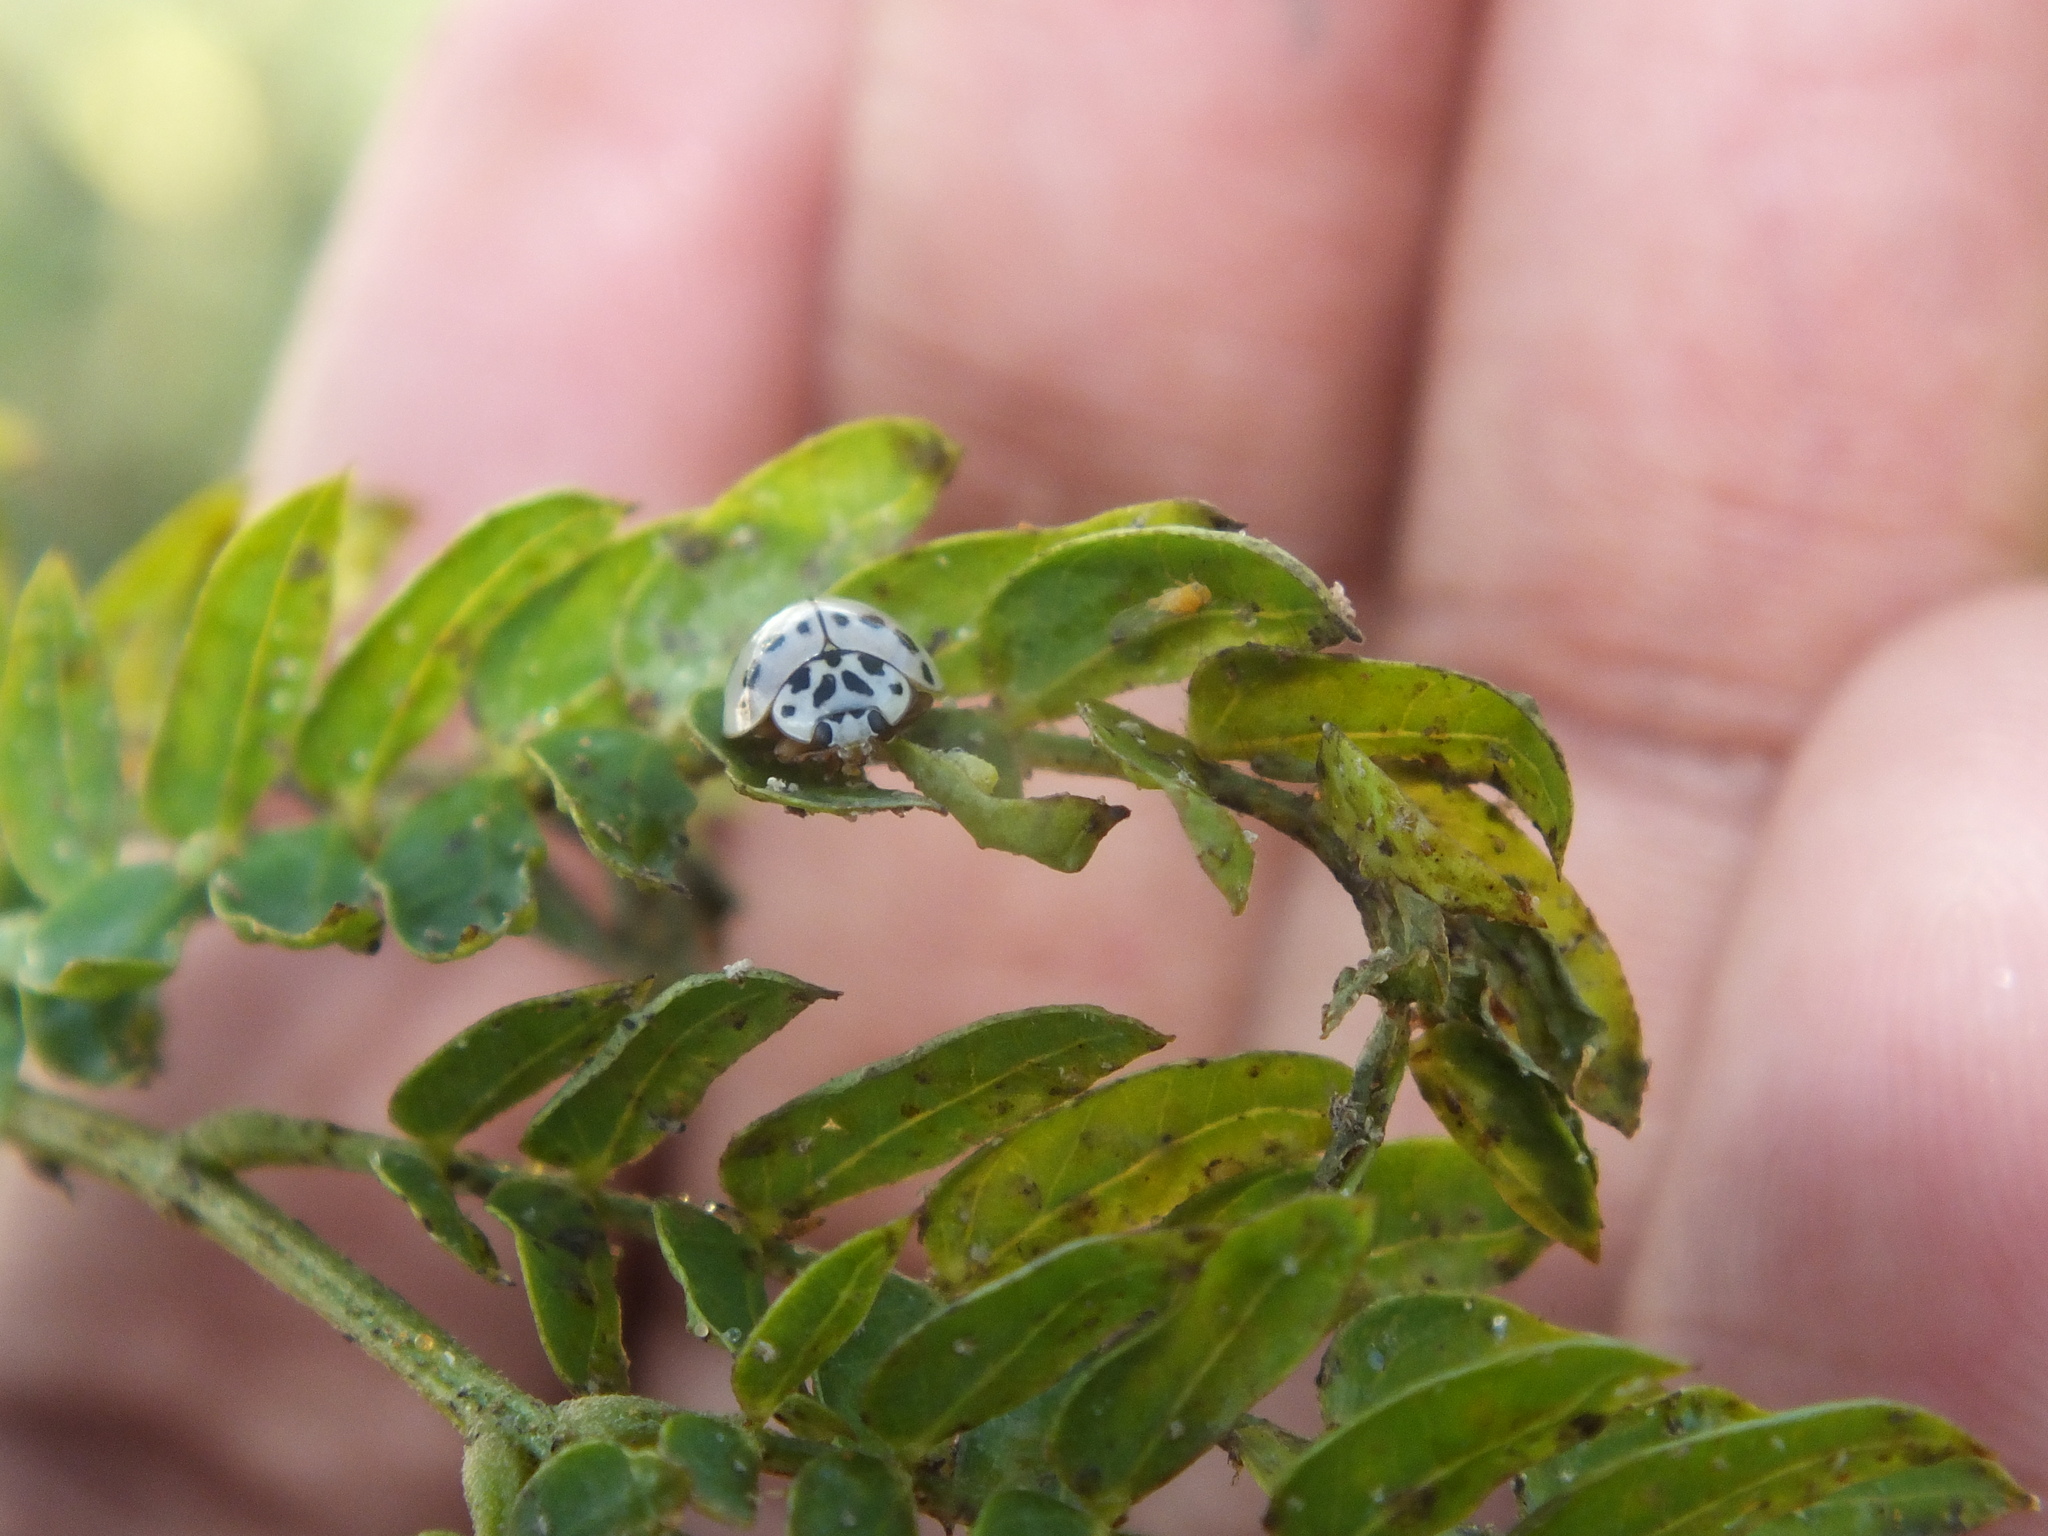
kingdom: Animalia
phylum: Arthropoda
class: Insecta
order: Coleoptera
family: Coccinellidae
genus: Olla
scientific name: Olla v-nigrum
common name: Ashy gray lady beetle
